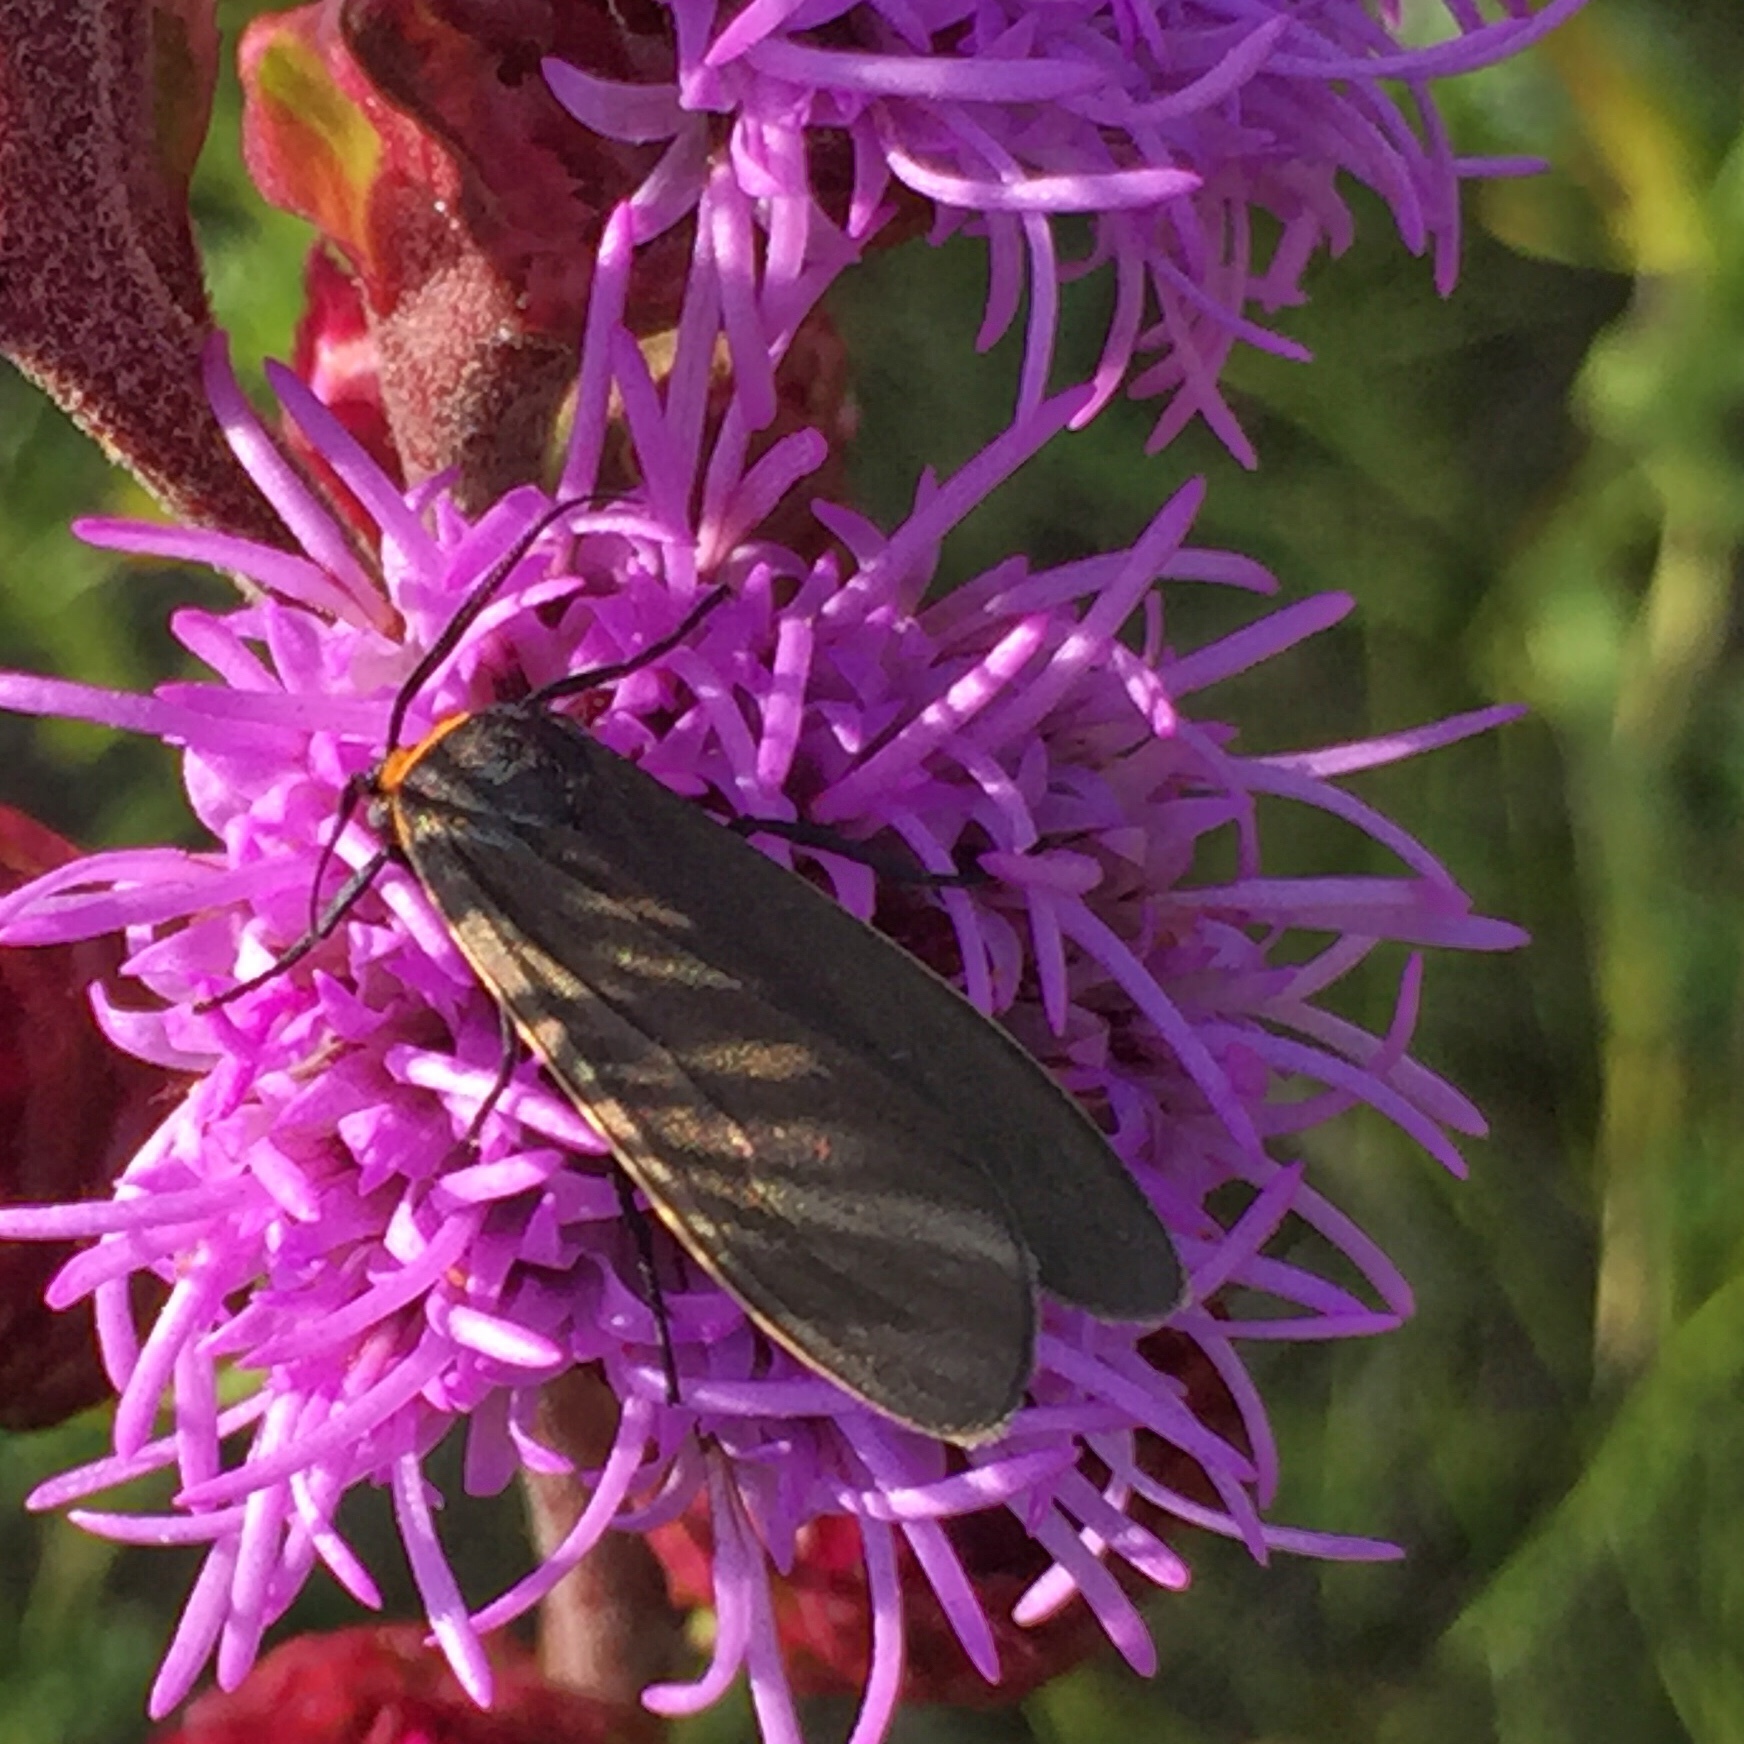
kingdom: Animalia
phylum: Arthropoda
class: Insecta
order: Lepidoptera
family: Erebidae
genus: Cisseps
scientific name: Cisseps fulvicollis
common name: Yellow-collared scape moth
